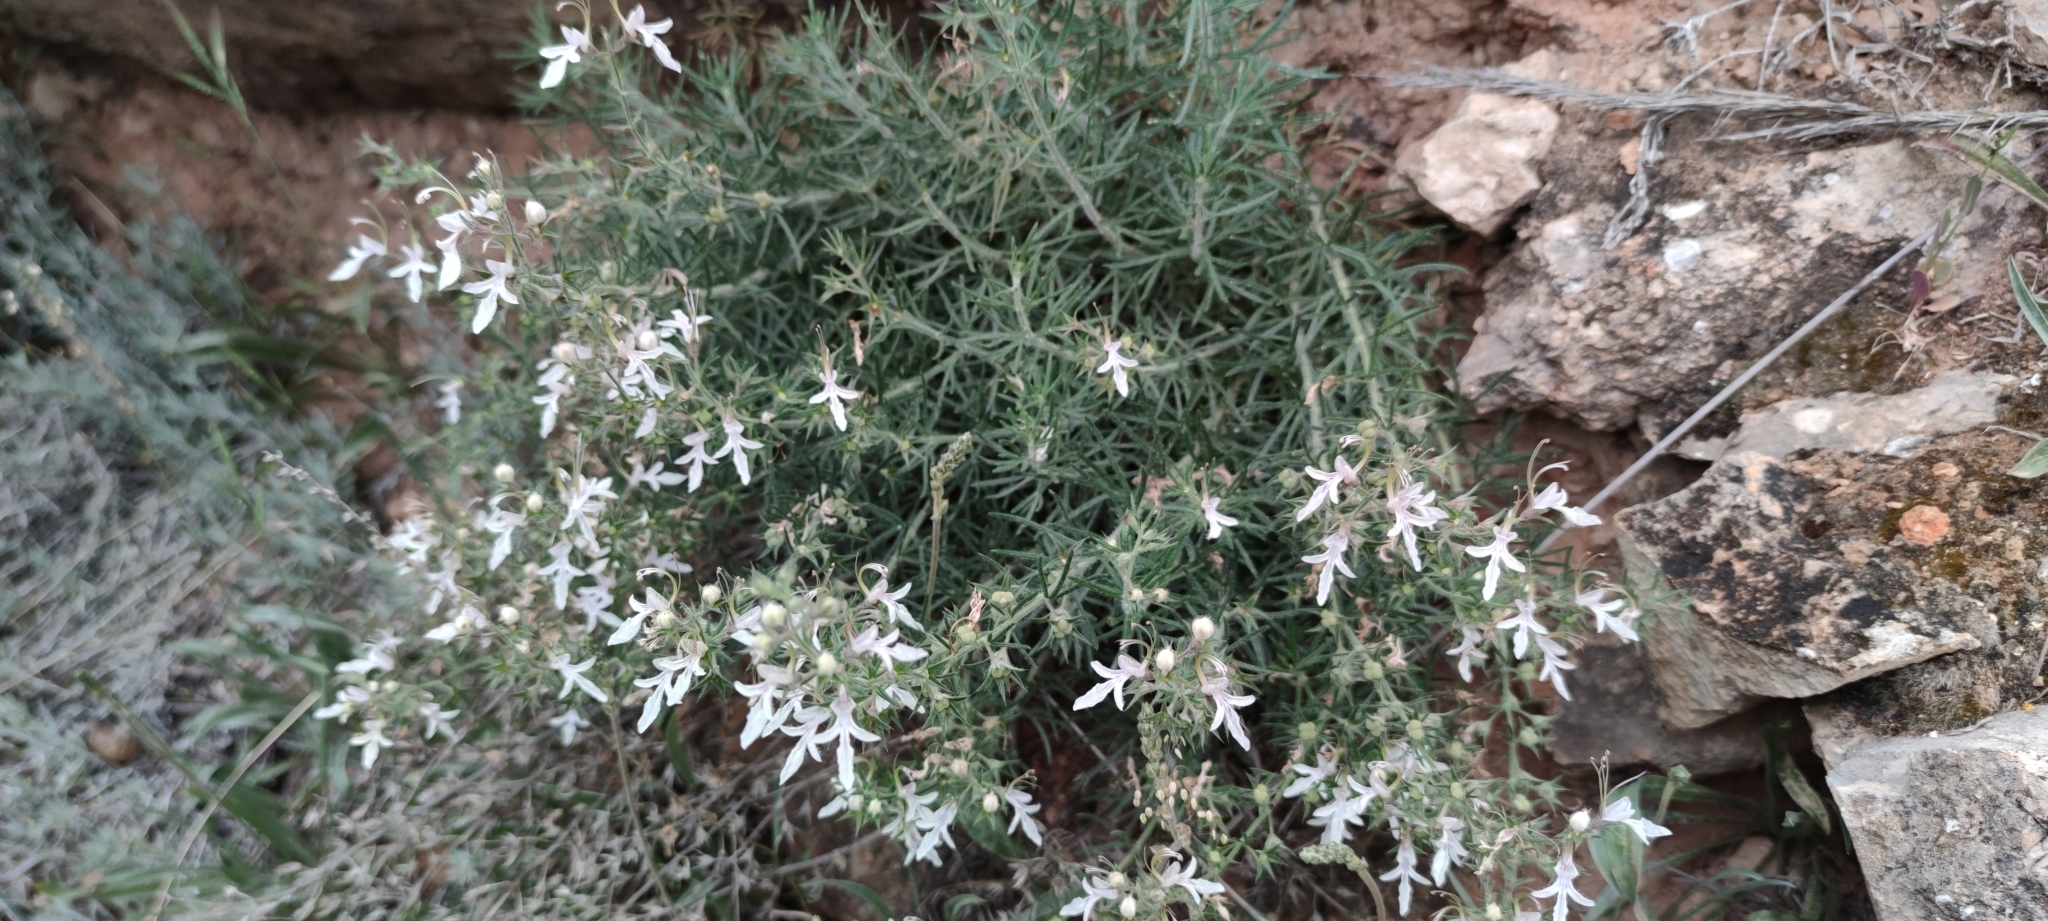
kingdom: Plantae
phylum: Tracheophyta
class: Magnoliopsida
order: Lamiales
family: Lamiaceae
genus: Teucrium
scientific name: Teucrium pseudochamaepitys
